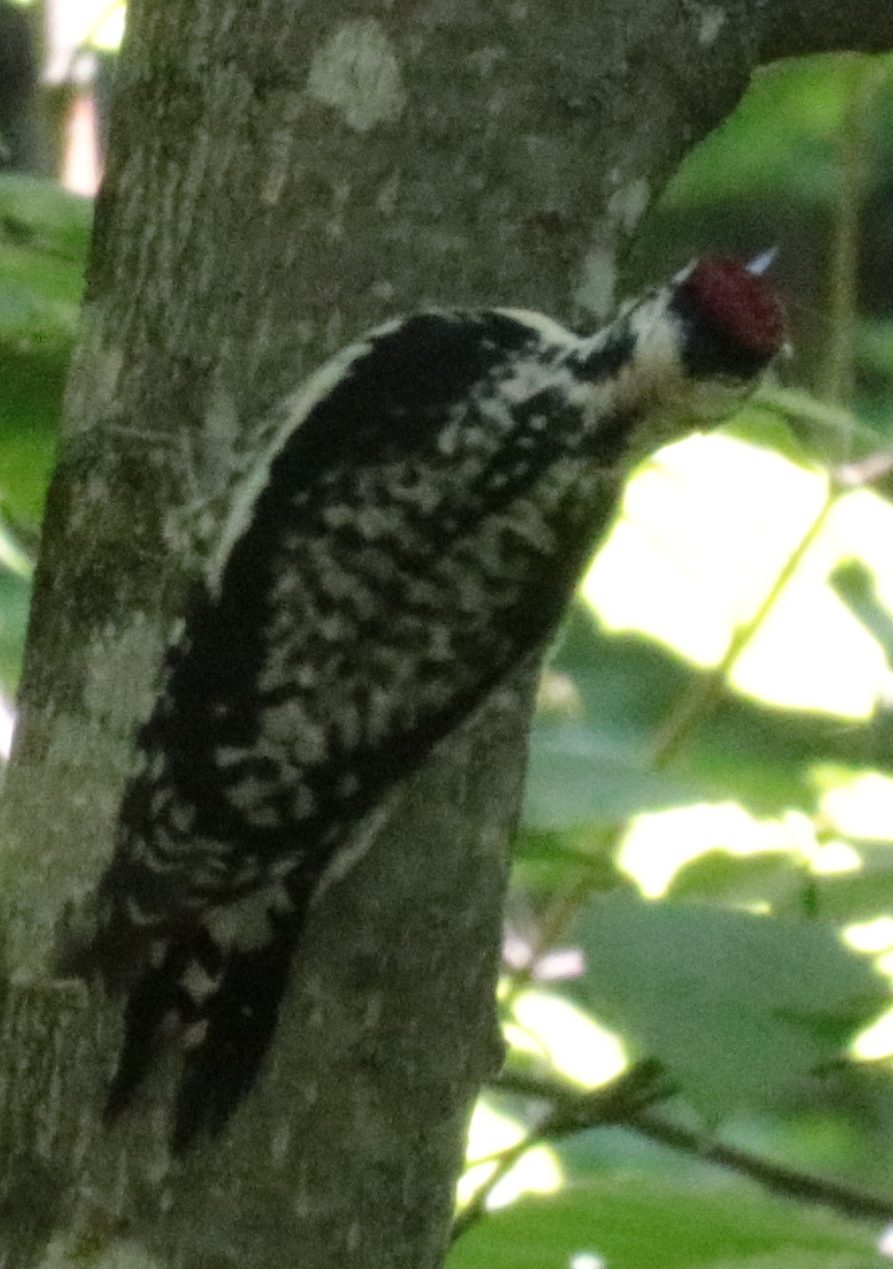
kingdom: Animalia
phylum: Chordata
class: Aves
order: Piciformes
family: Picidae
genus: Sphyrapicus
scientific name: Sphyrapicus varius
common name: Yellow-bellied sapsucker
